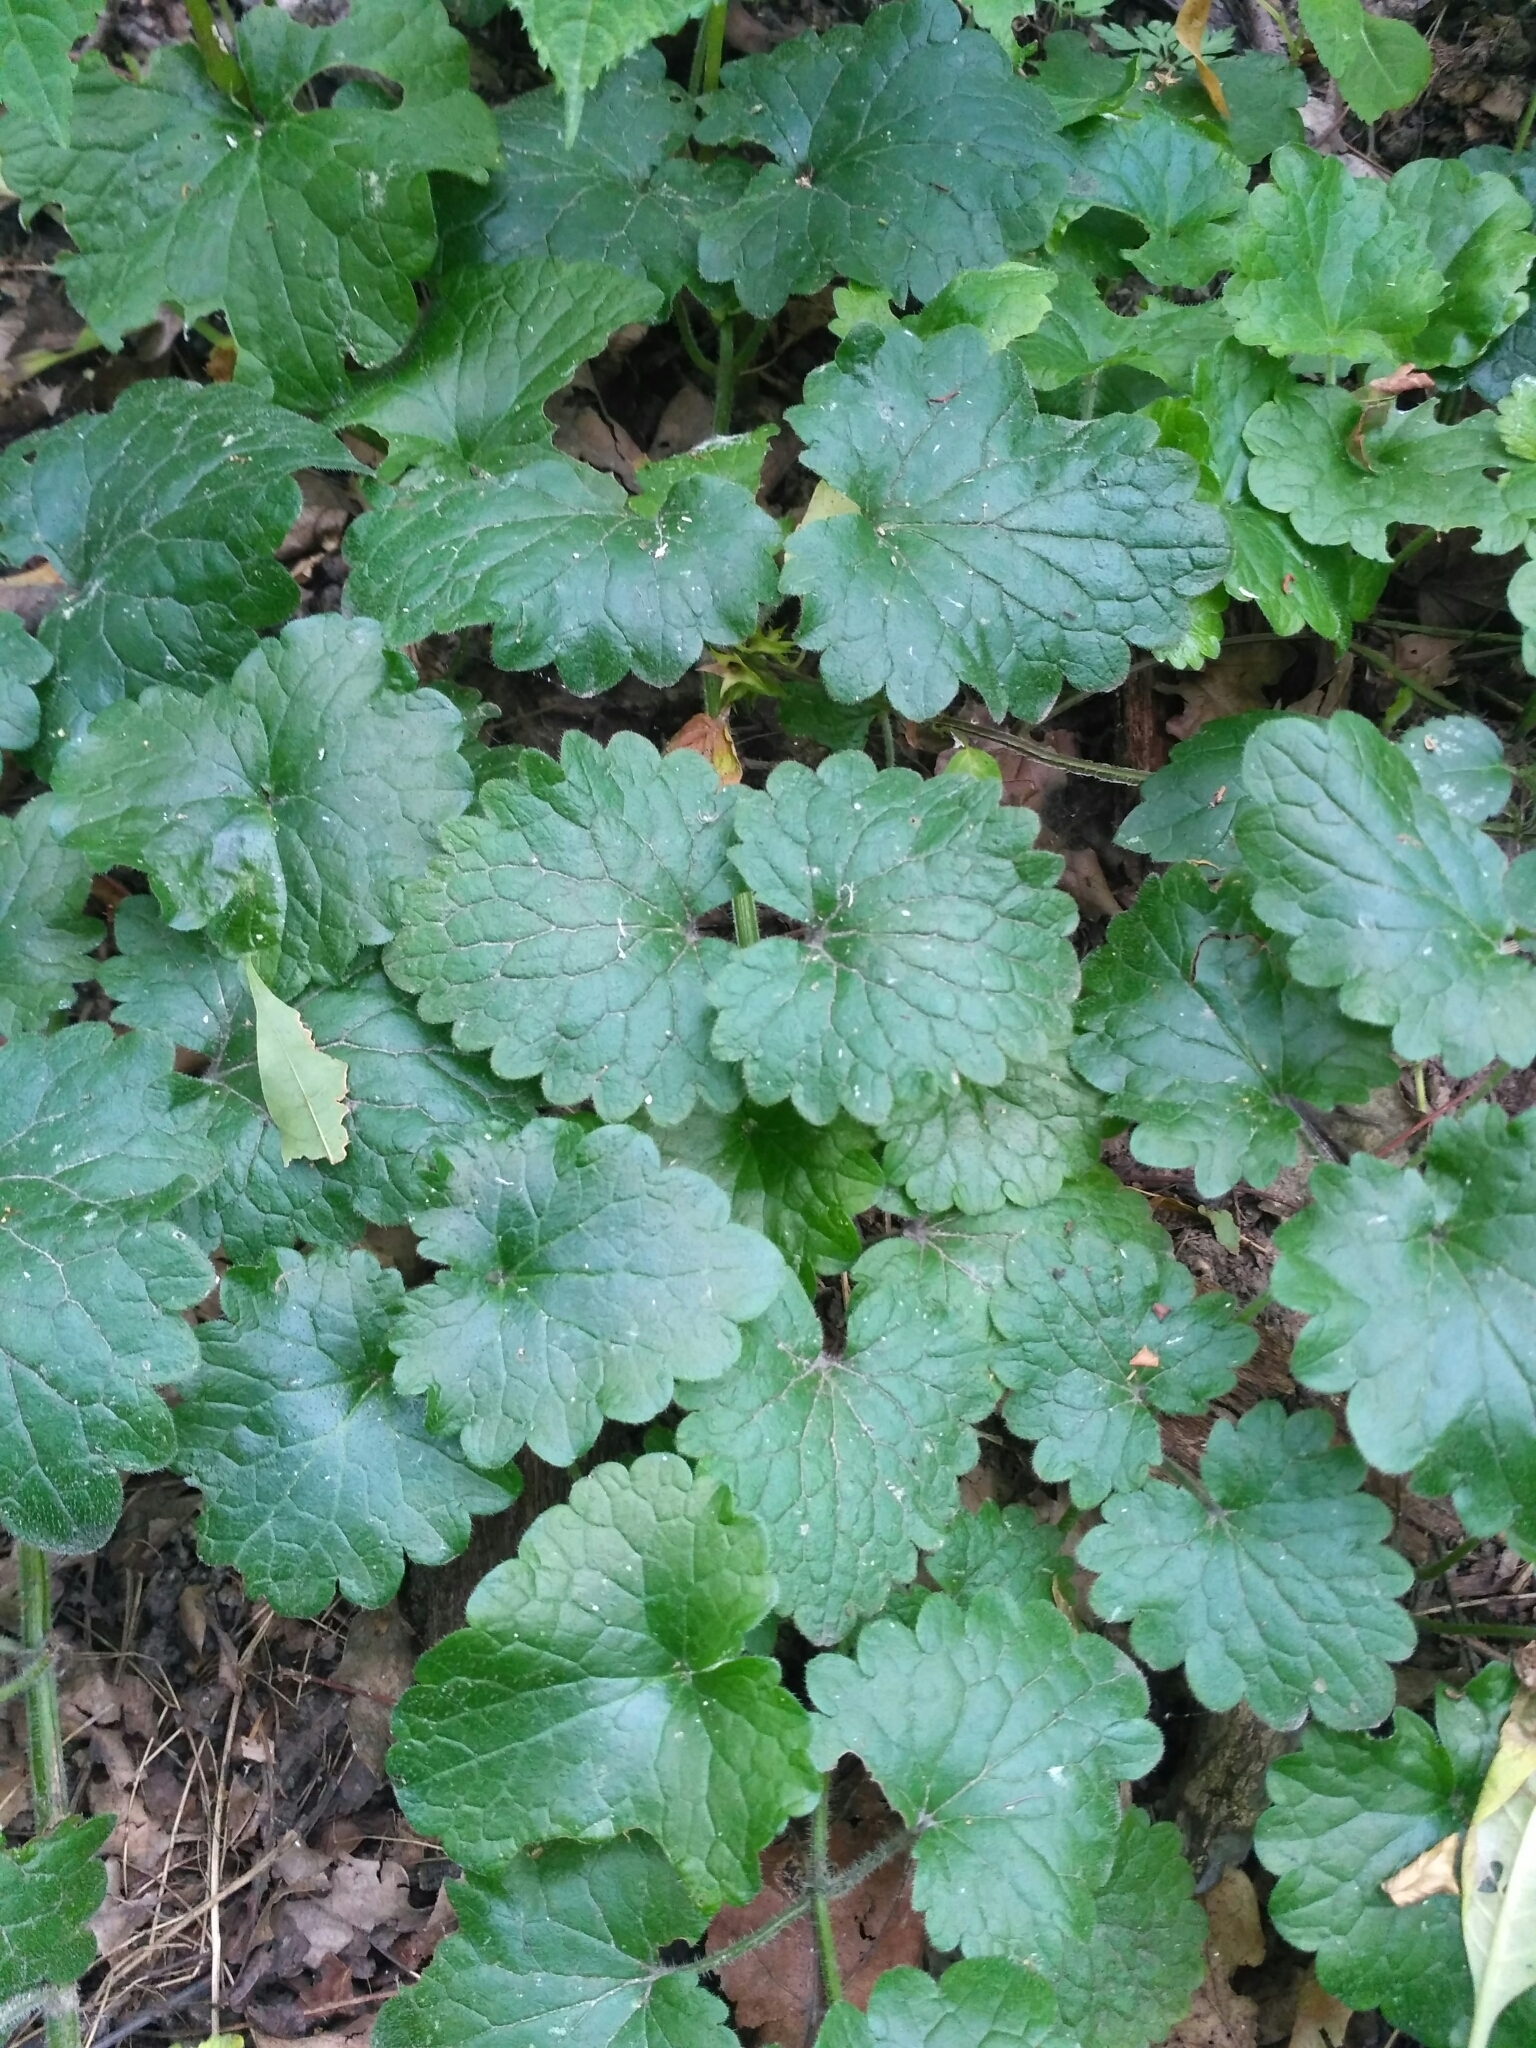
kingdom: Plantae
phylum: Tracheophyta
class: Magnoliopsida
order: Lamiales
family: Lamiaceae
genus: Glechoma
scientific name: Glechoma hederacea
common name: Ground ivy
